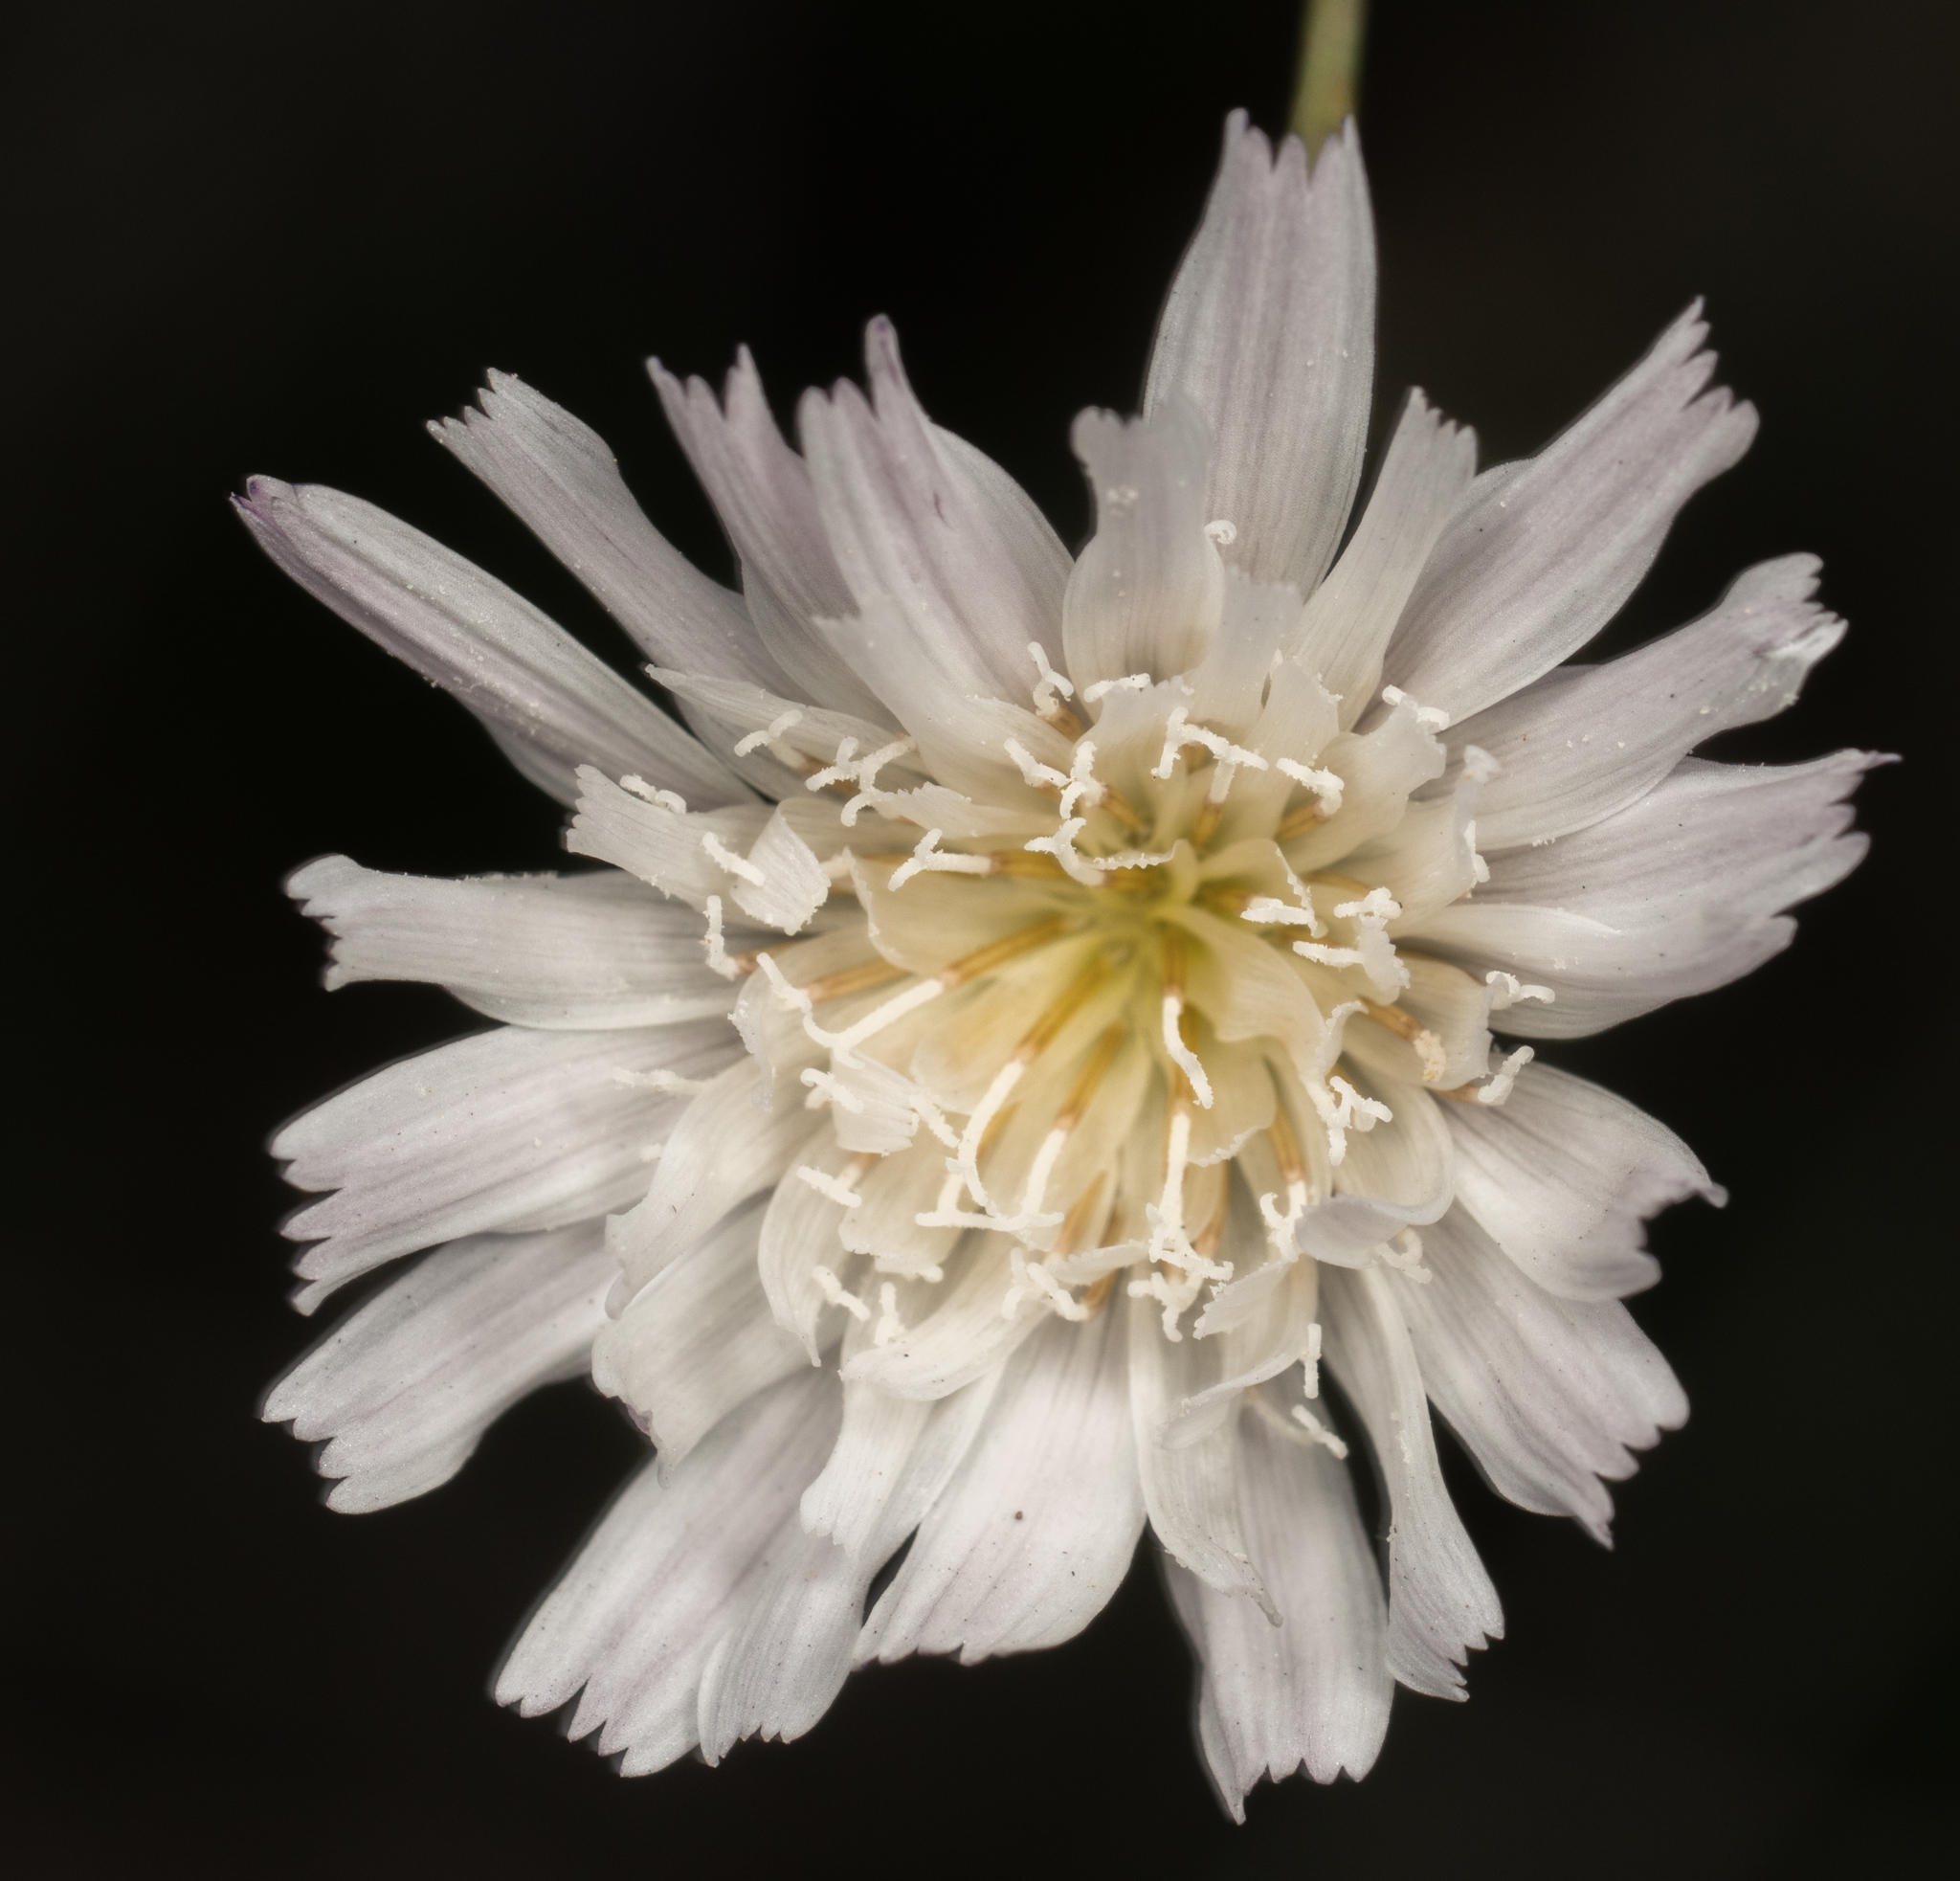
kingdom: Plantae
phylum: Tracheophyta
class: Magnoliopsida
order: Asterales
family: Asteraceae
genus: Malacothrix
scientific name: Malacothrix saxatilis
